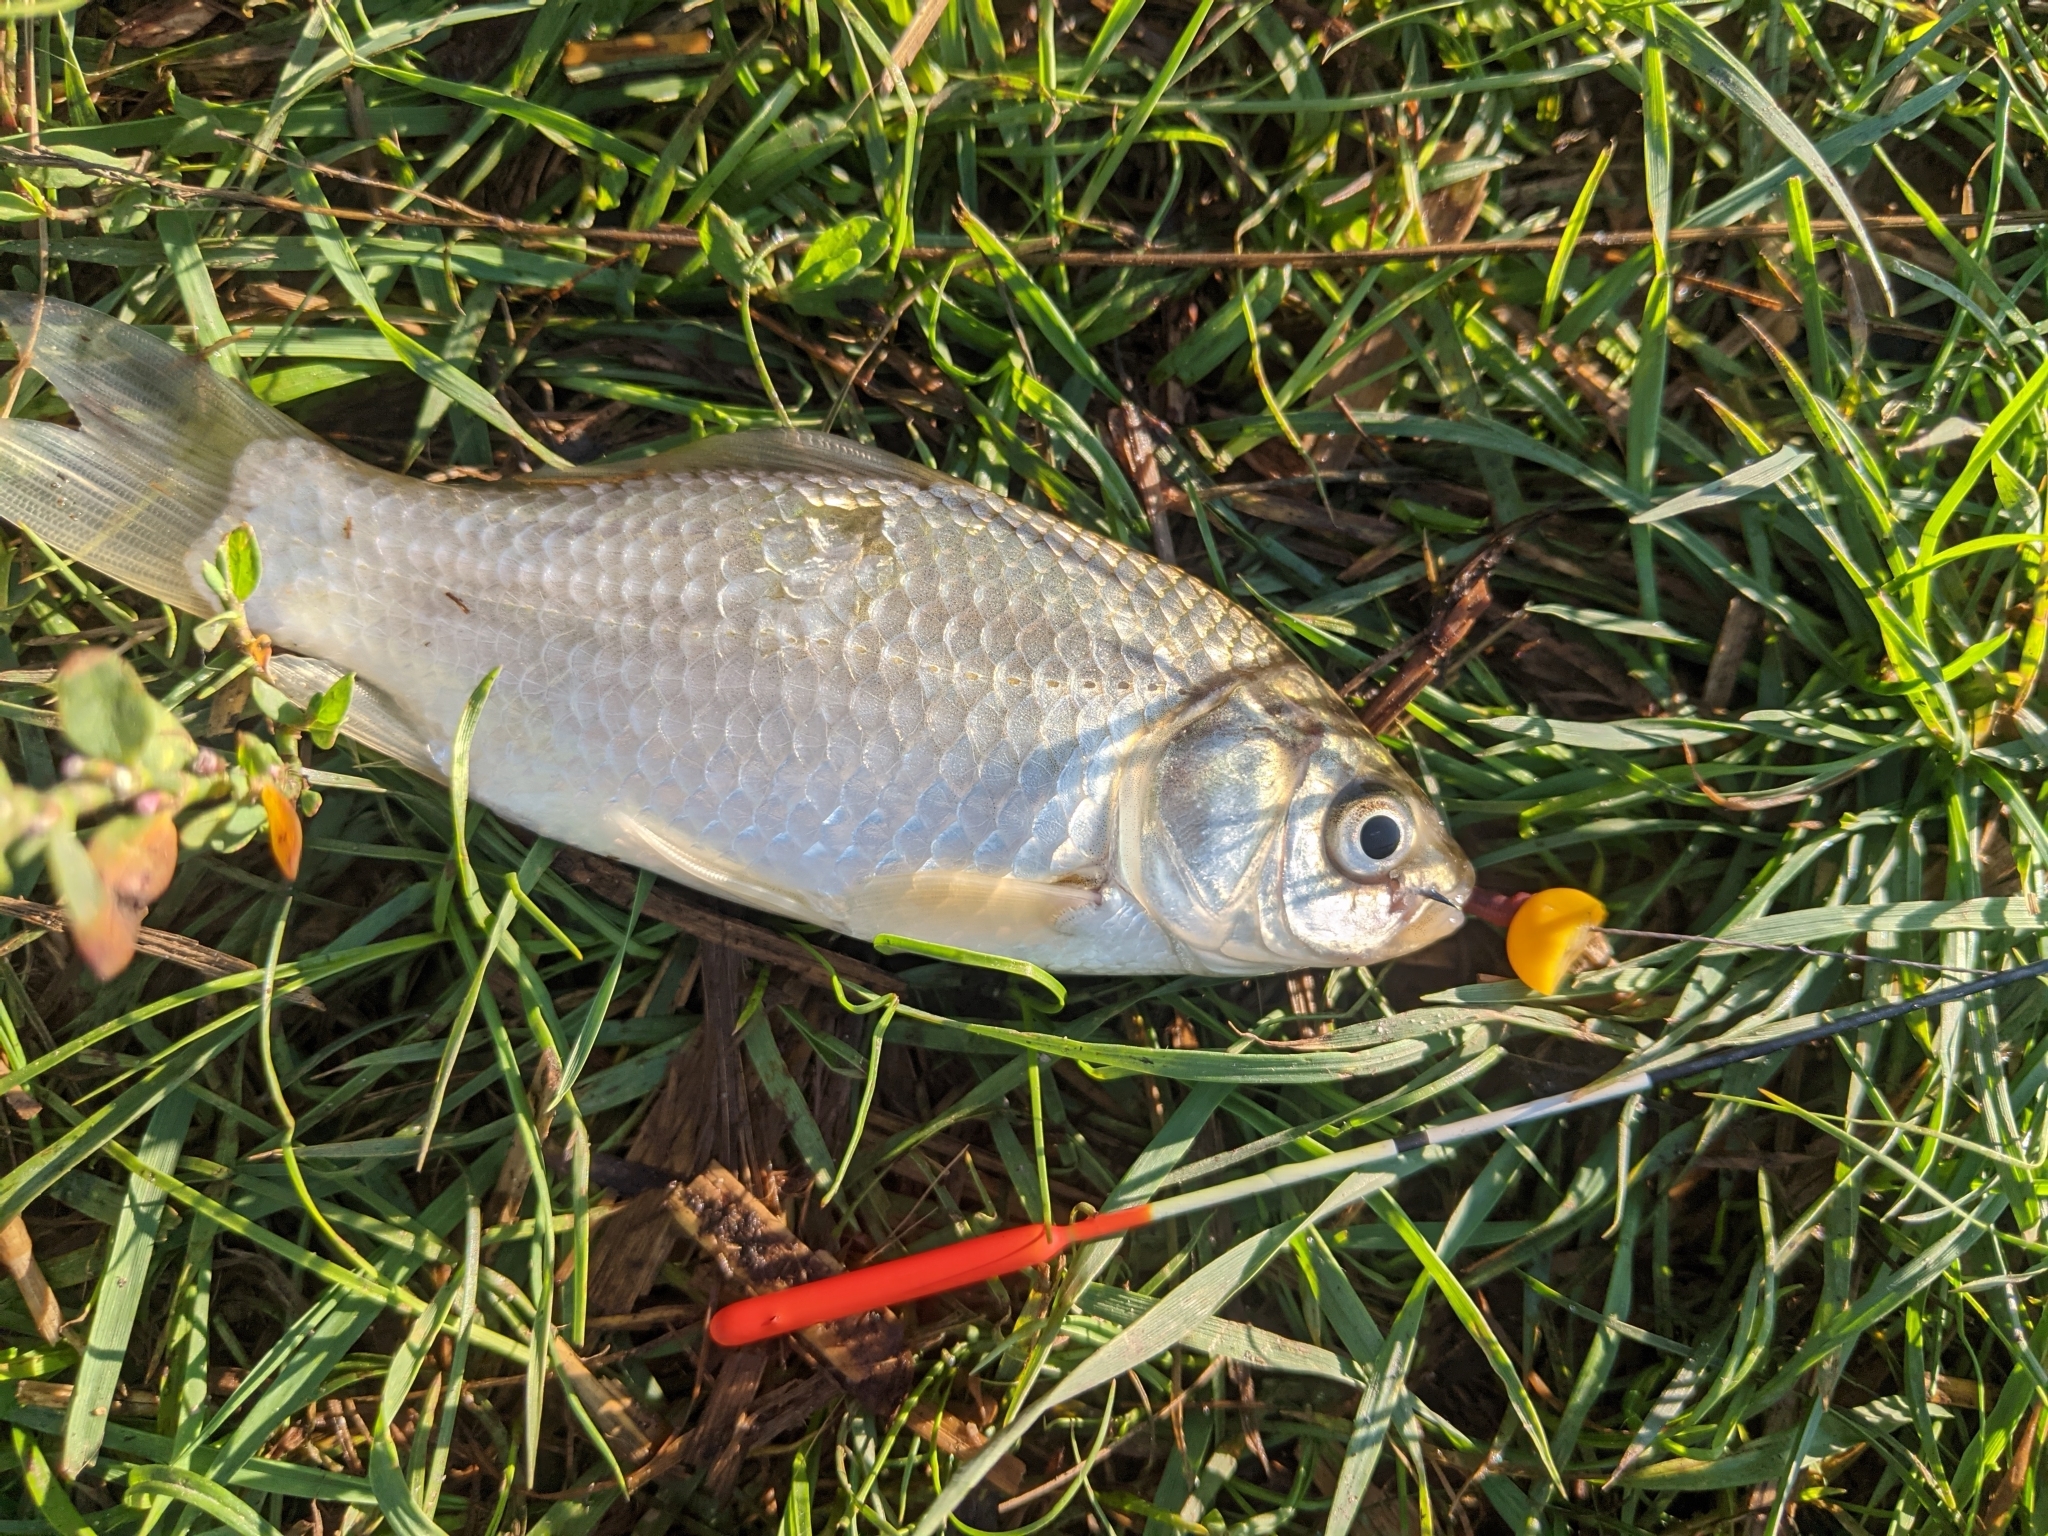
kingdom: Animalia
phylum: Chordata
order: Cypriniformes
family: Cyprinidae
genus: Carassius
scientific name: Carassius gibelio
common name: Prussian carp
